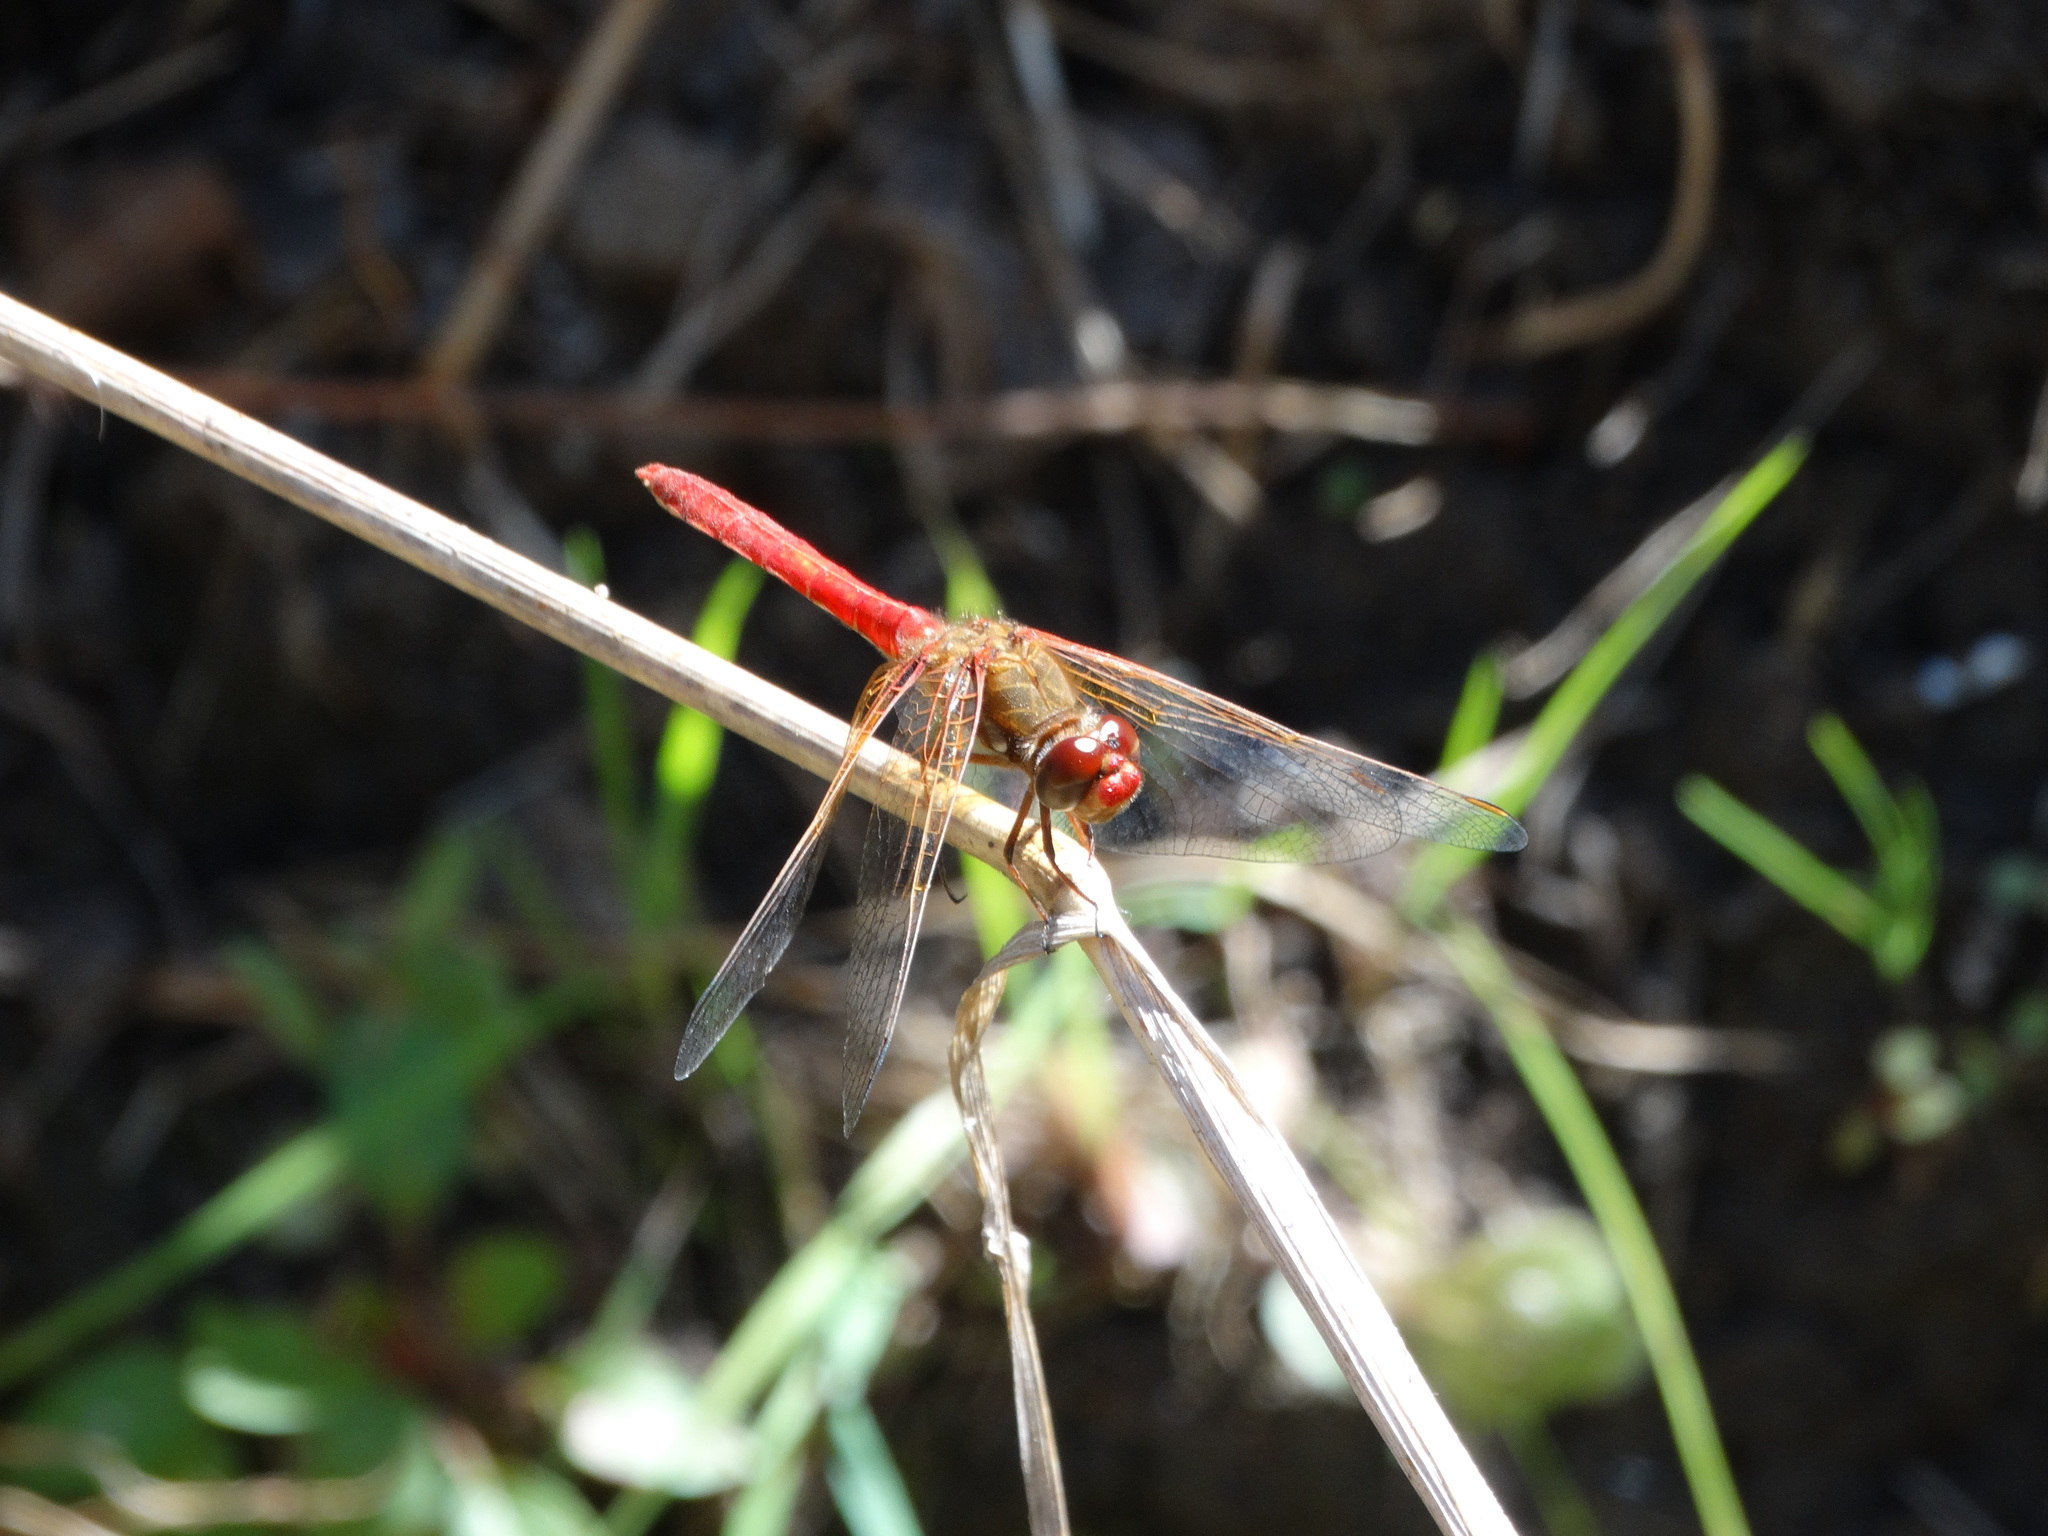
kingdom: Animalia
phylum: Arthropoda
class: Insecta
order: Odonata
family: Libellulidae
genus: Sympetrum
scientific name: Sympetrum illotum
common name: Cardinal meadowhawk
